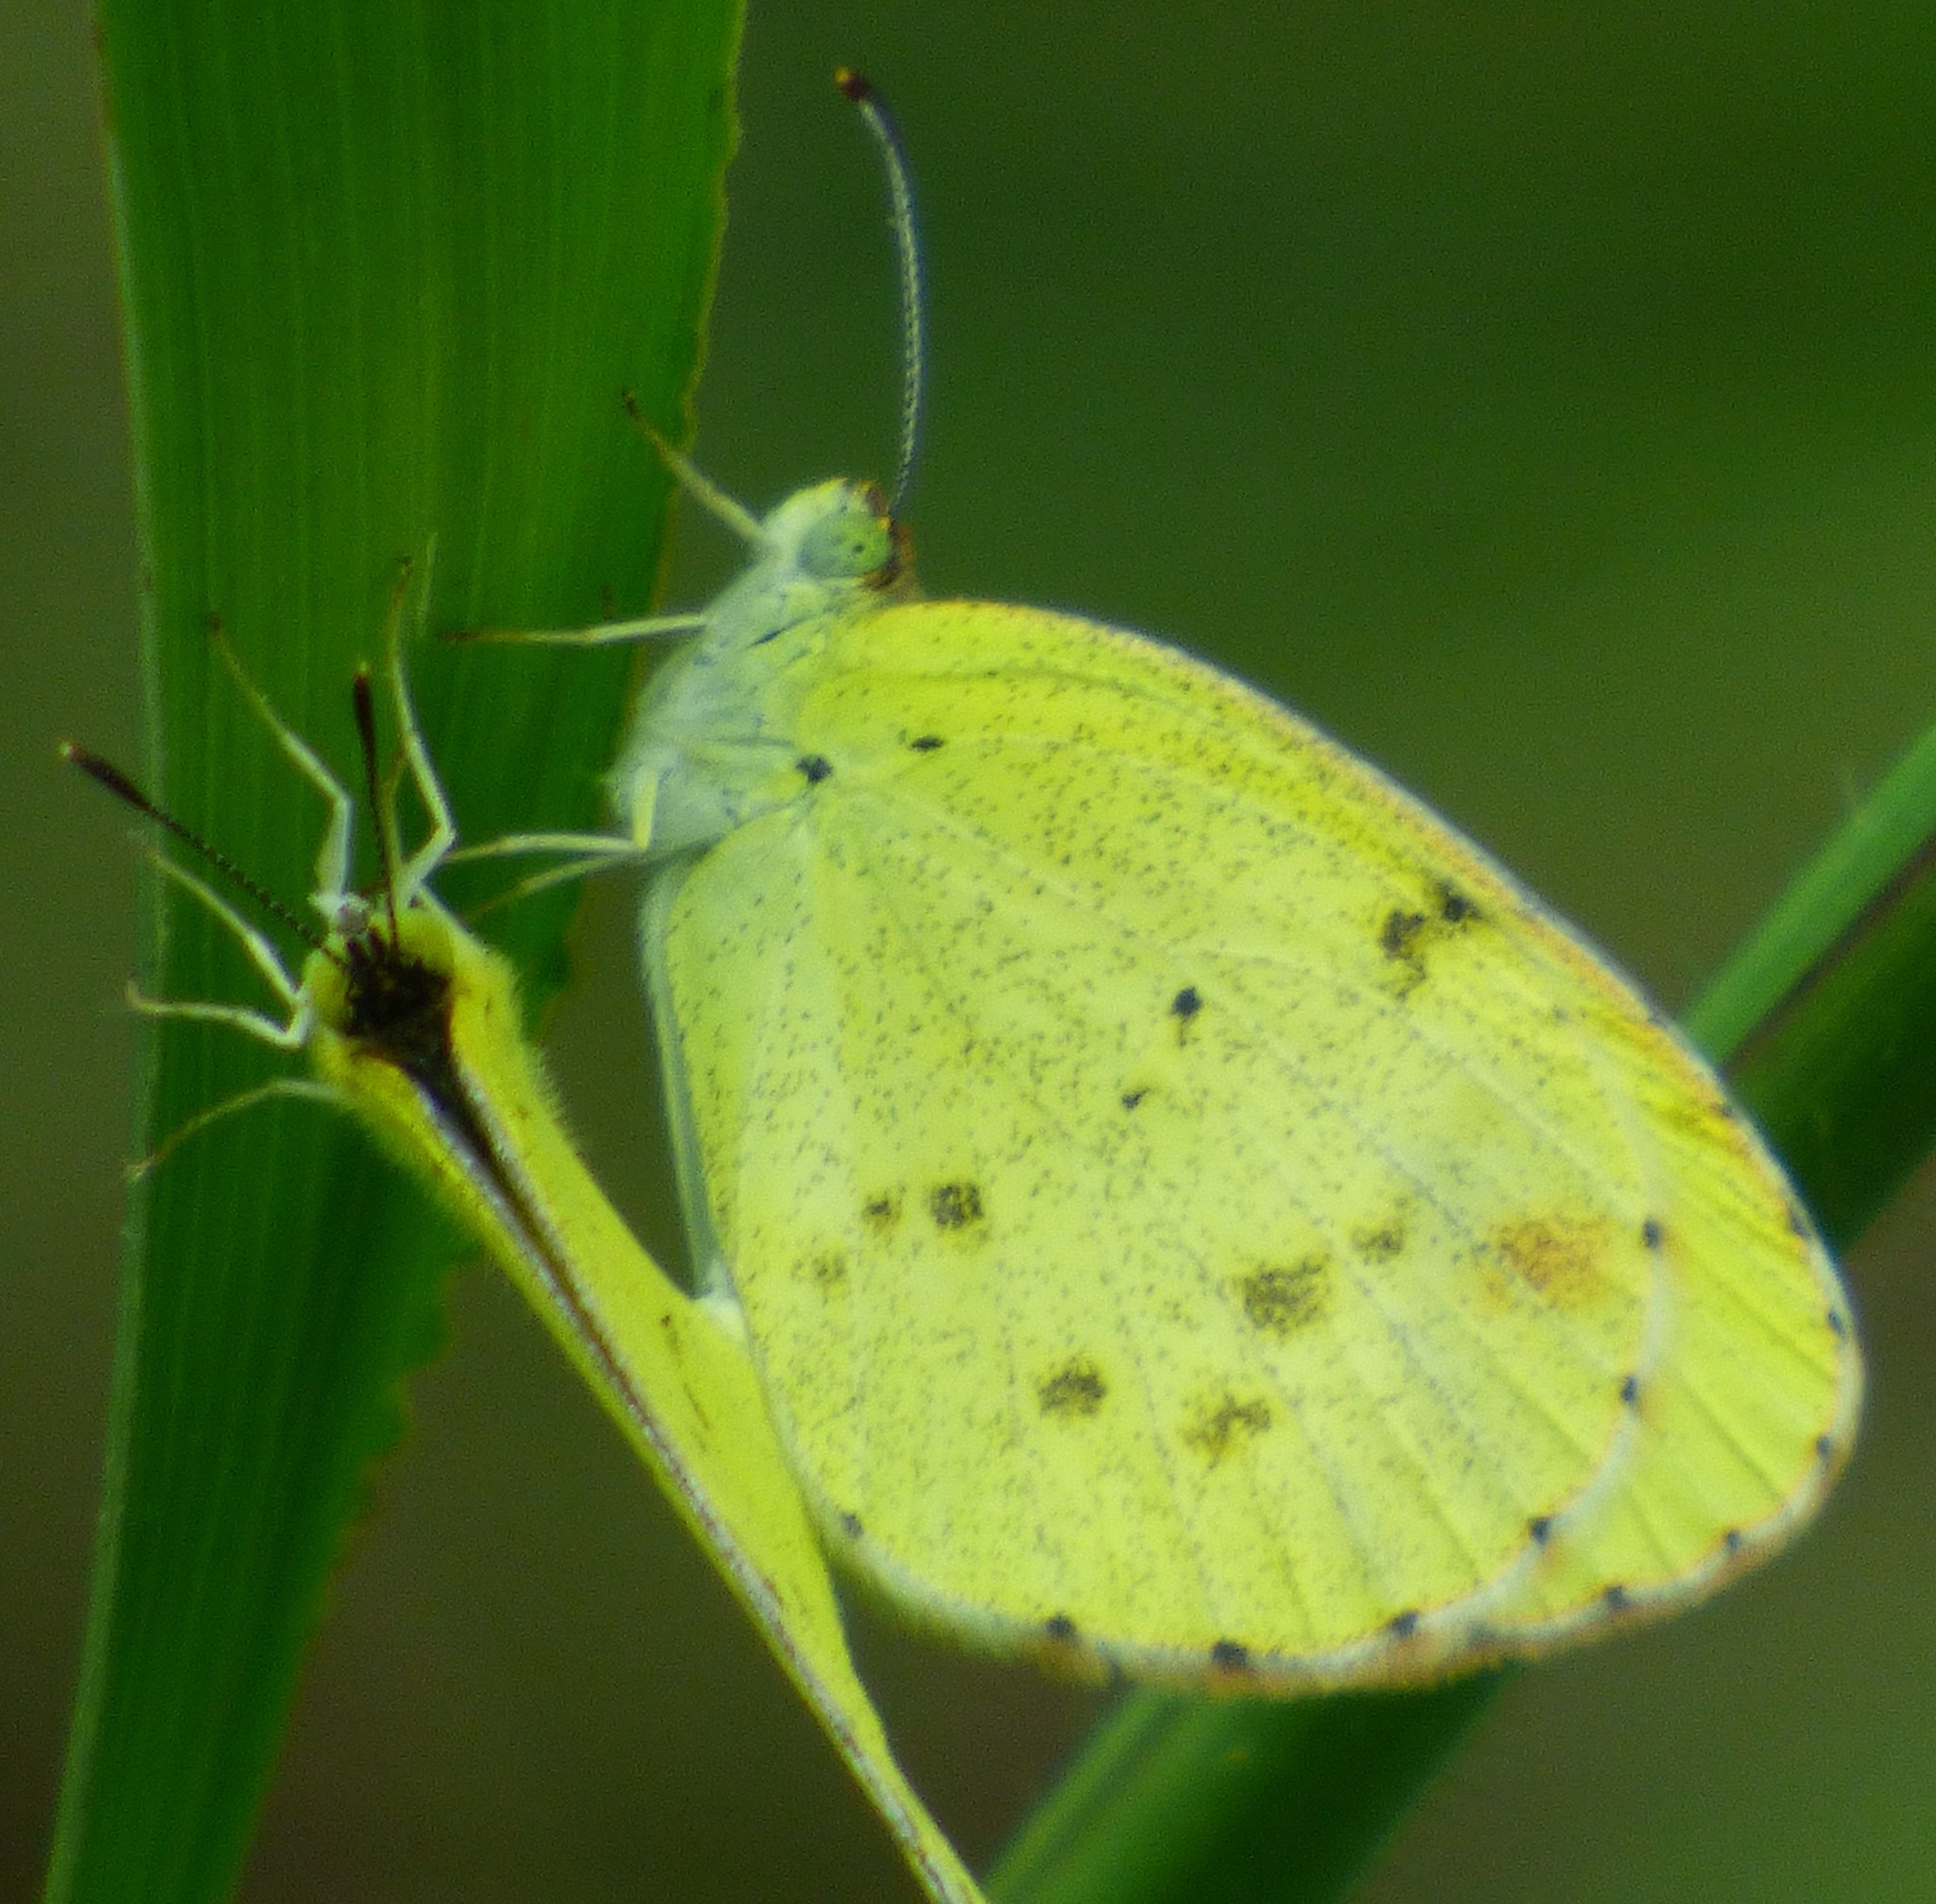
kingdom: Animalia
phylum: Arthropoda
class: Insecta
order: Lepidoptera
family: Pieridae
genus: Pyrisitia
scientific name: Pyrisitia lisa
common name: Little yellow
